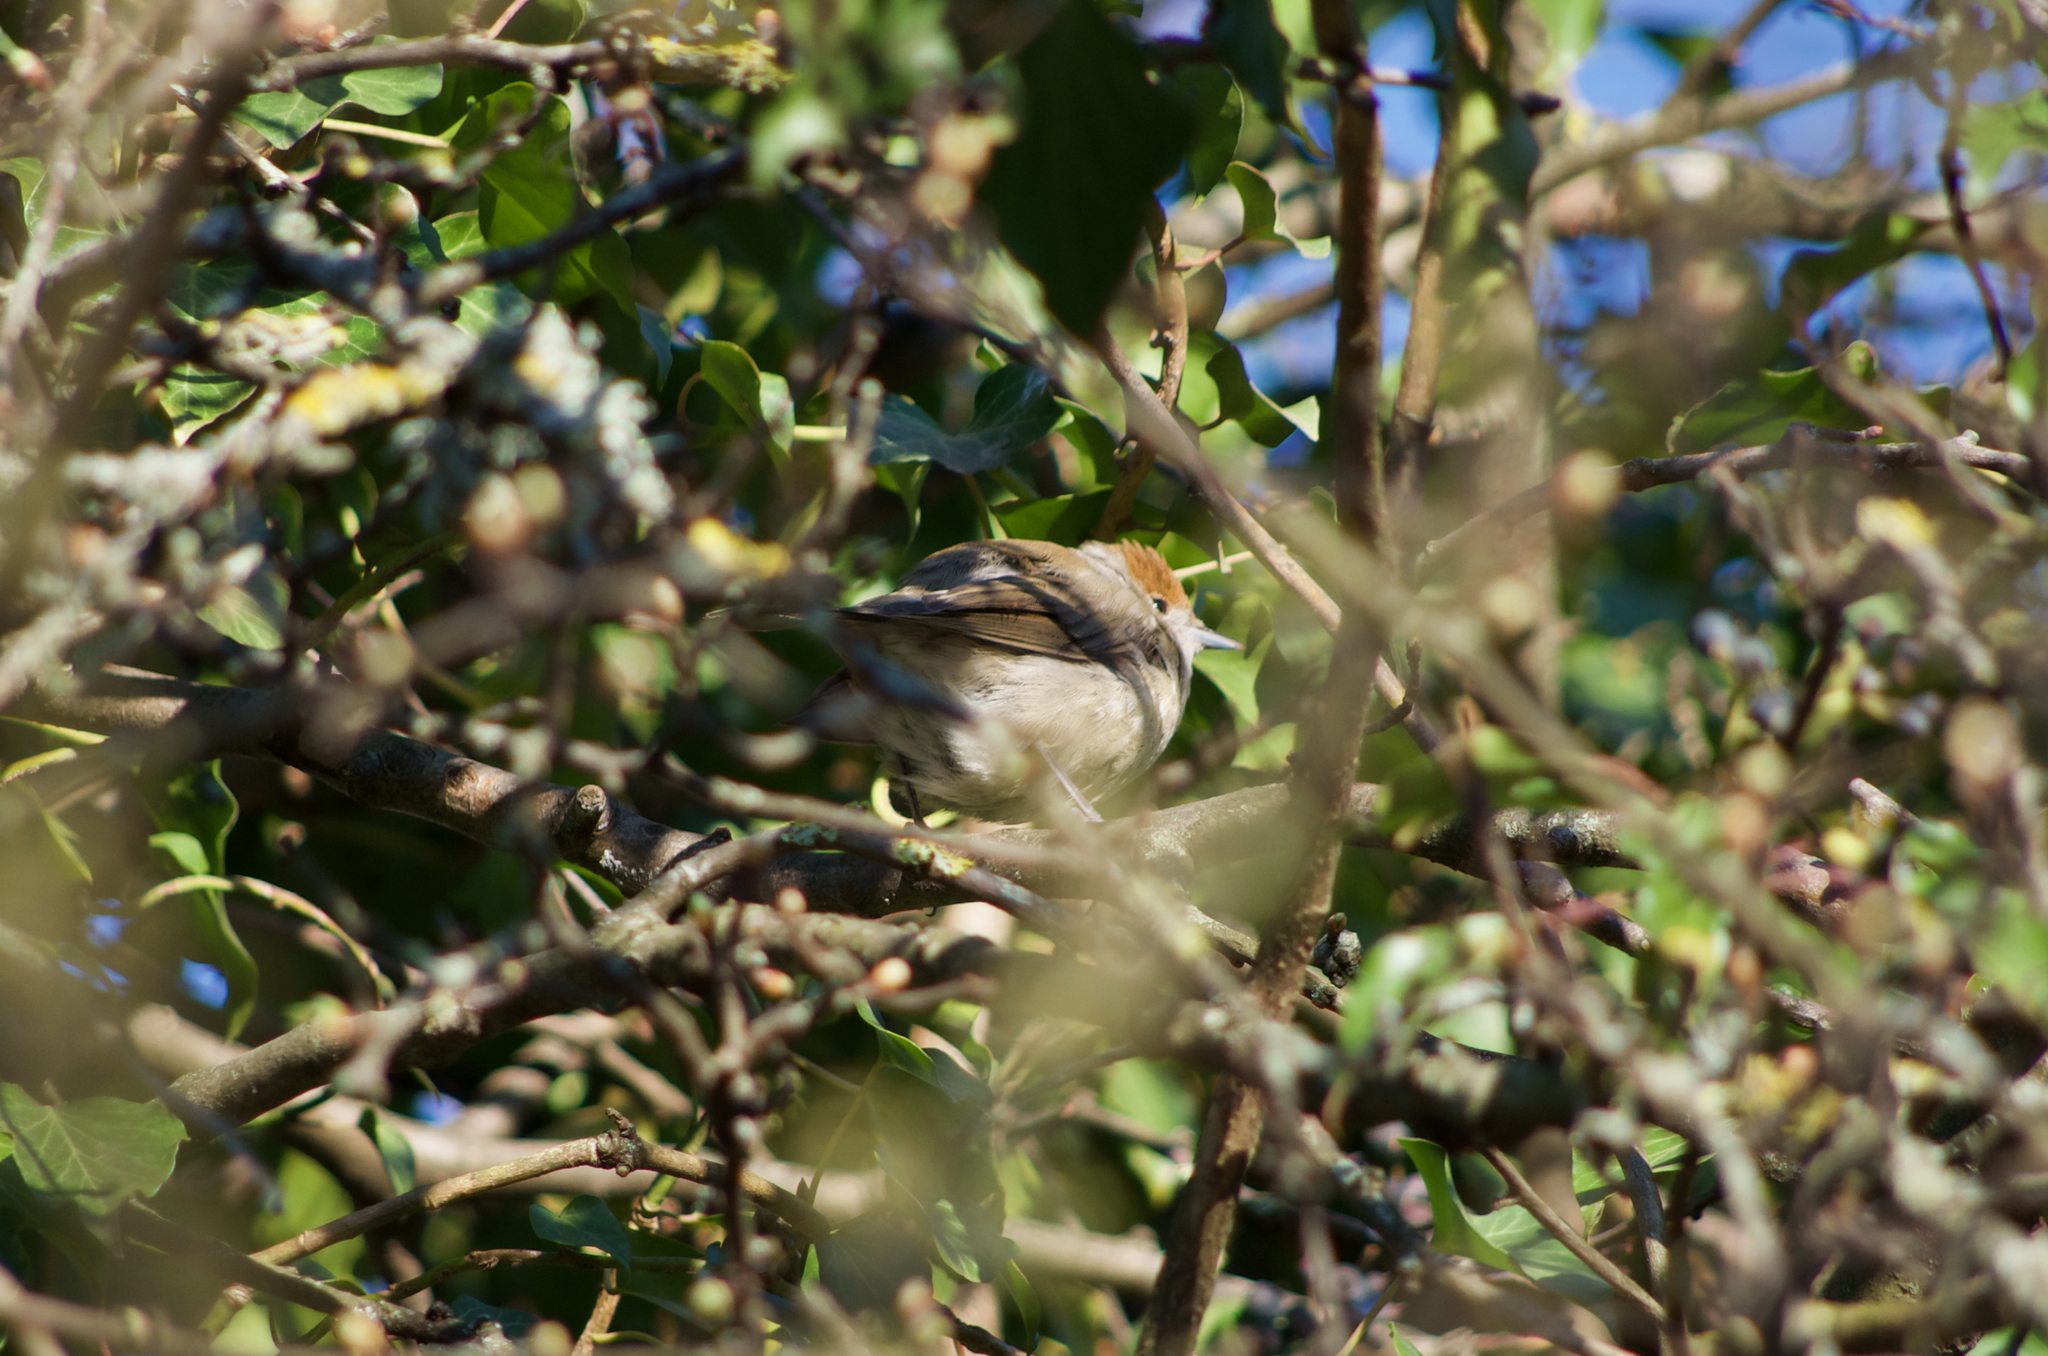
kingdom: Animalia
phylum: Chordata
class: Aves
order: Passeriformes
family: Sylviidae
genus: Sylvia
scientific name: Sylvia atricapilla
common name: Eurasian blackcap
